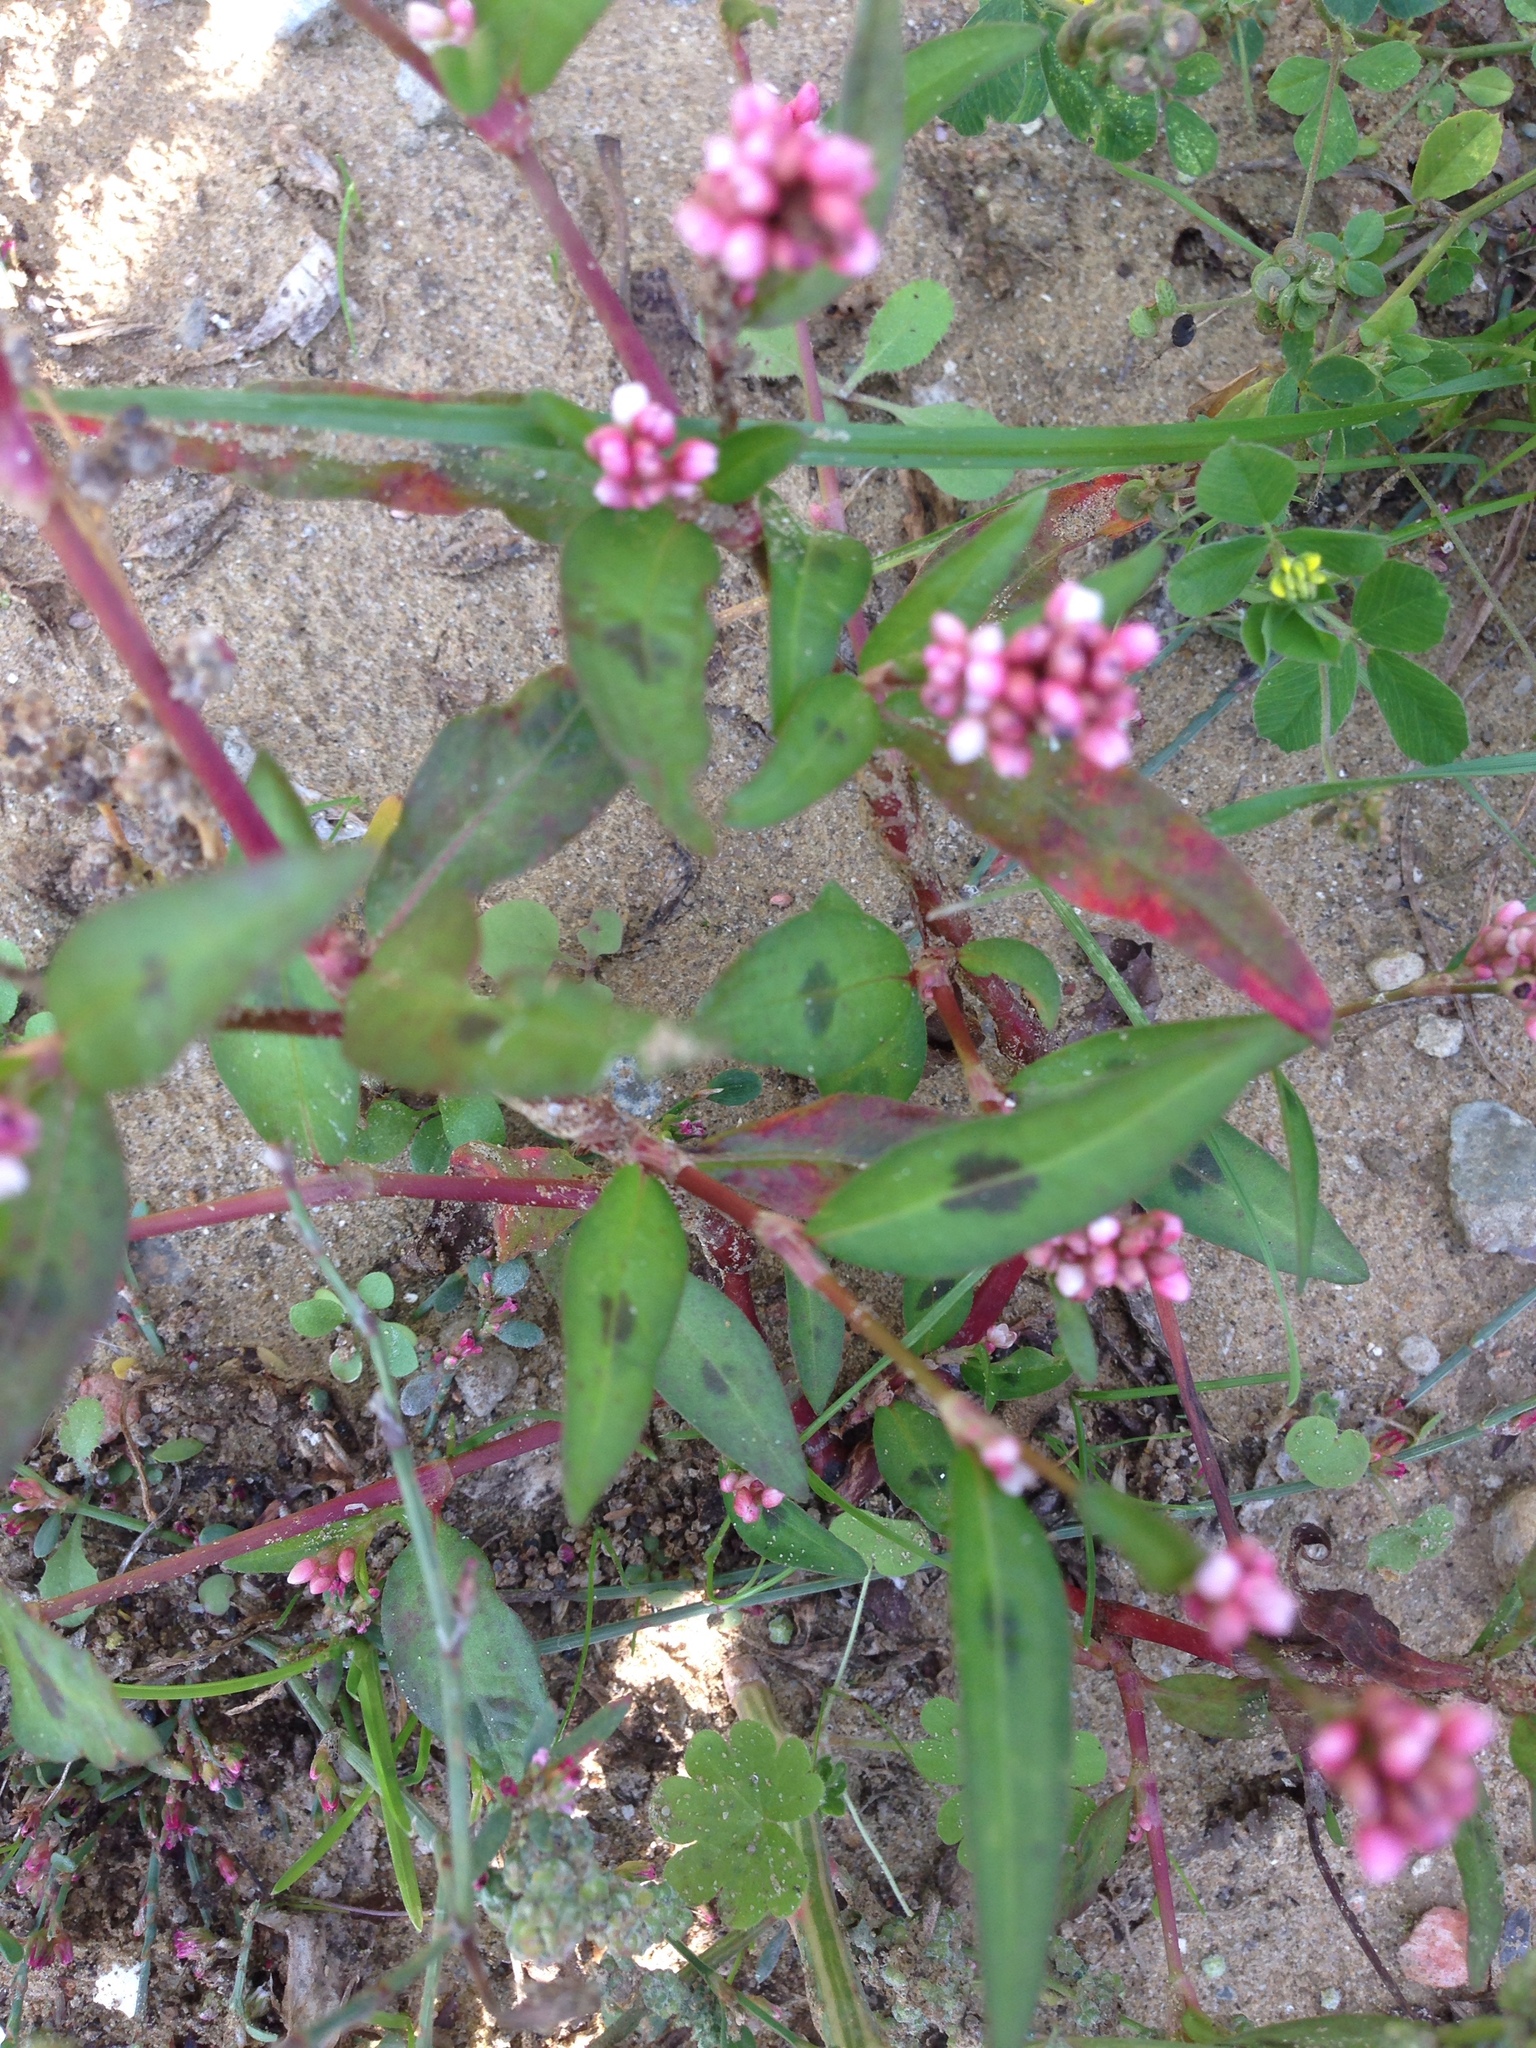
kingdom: Plantae
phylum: Tracheophyta
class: Magnoliopsida
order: Caryophyllales
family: Polygonaceae
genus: Persicaria
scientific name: Persicaria maculosa
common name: Redshank
